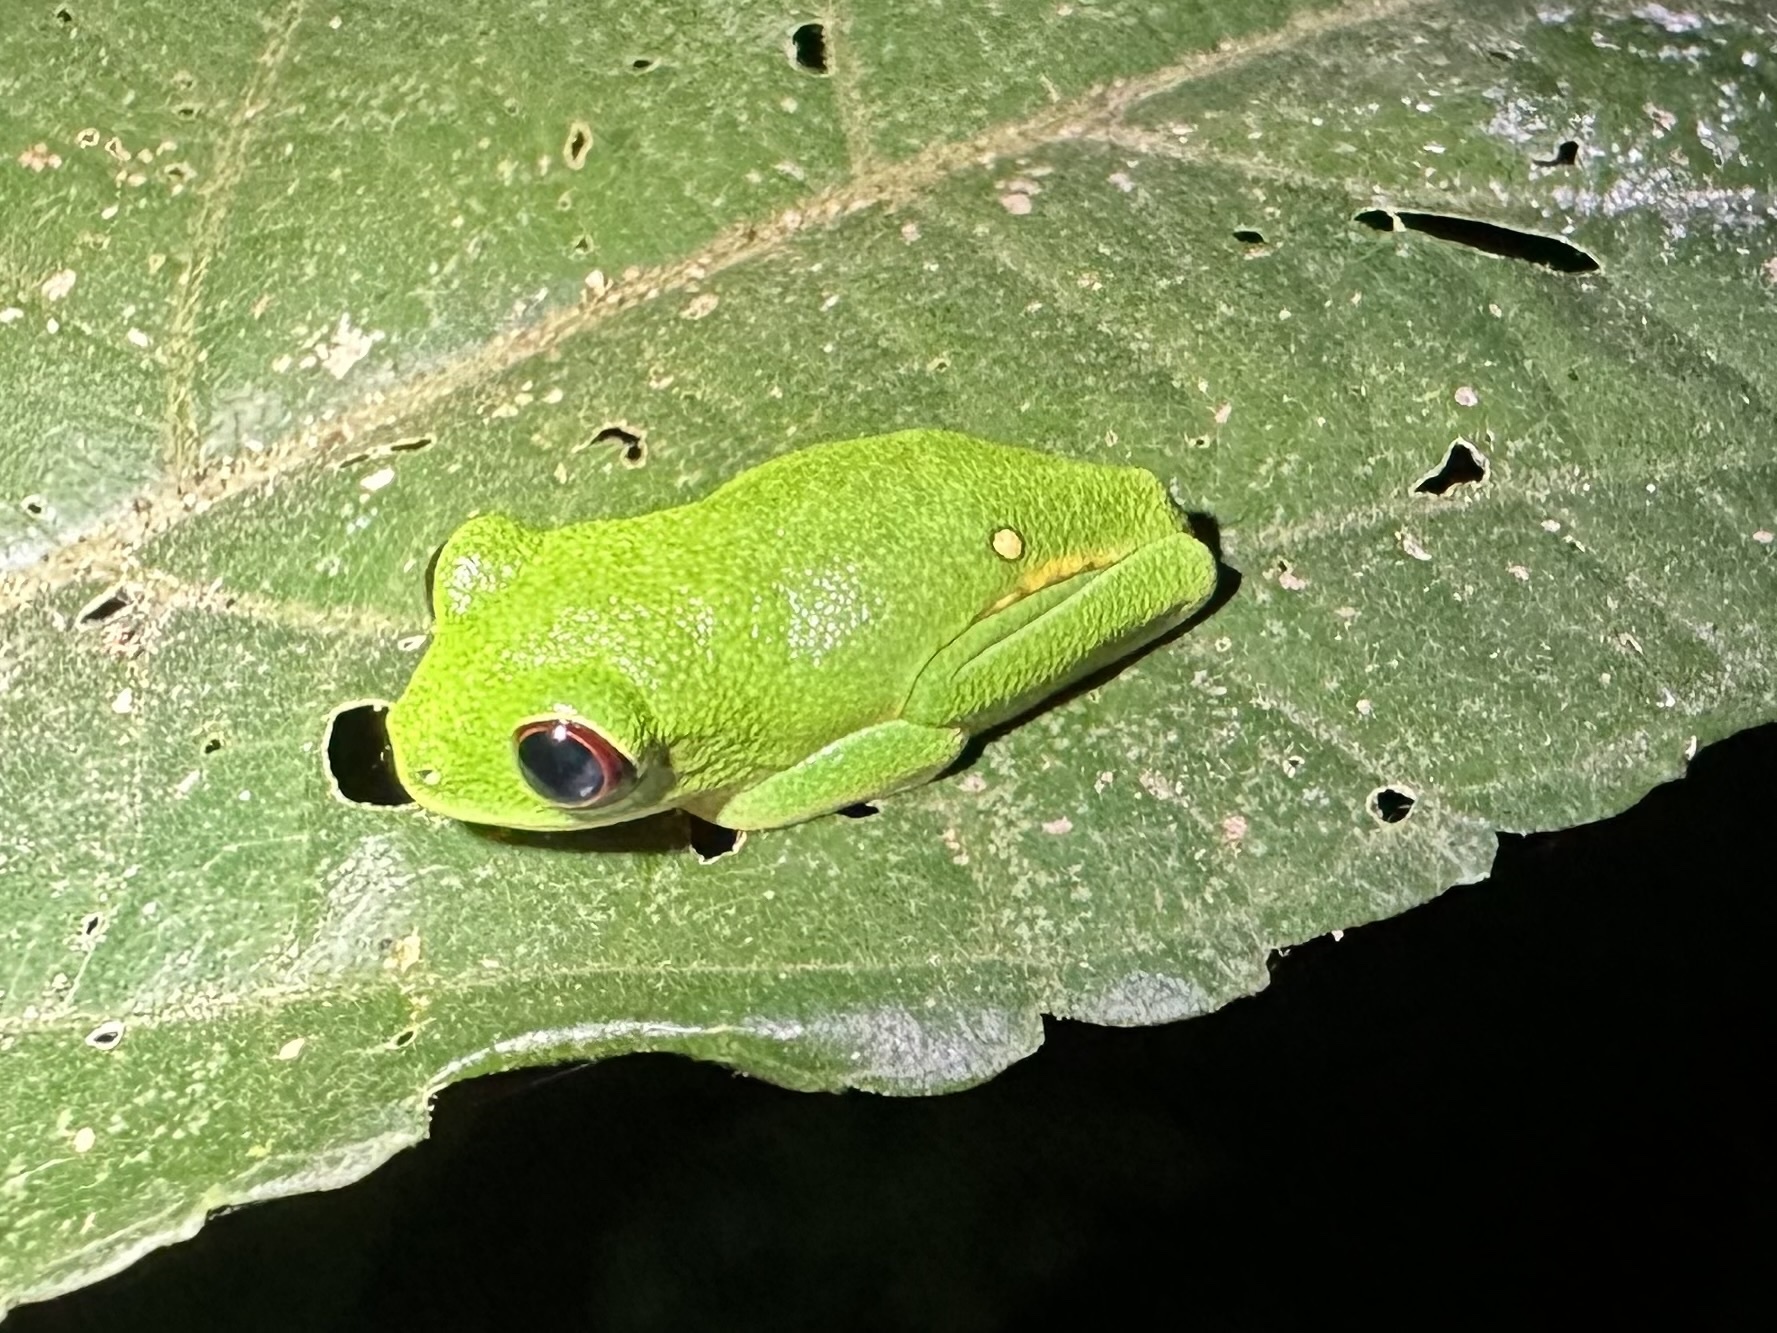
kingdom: Animalia
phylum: Chordata
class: Amphibia
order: Anura
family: Phyllomedusidae
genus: Agalychnis
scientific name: Agalychnis callidryas
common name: Red-eyed treefrog
